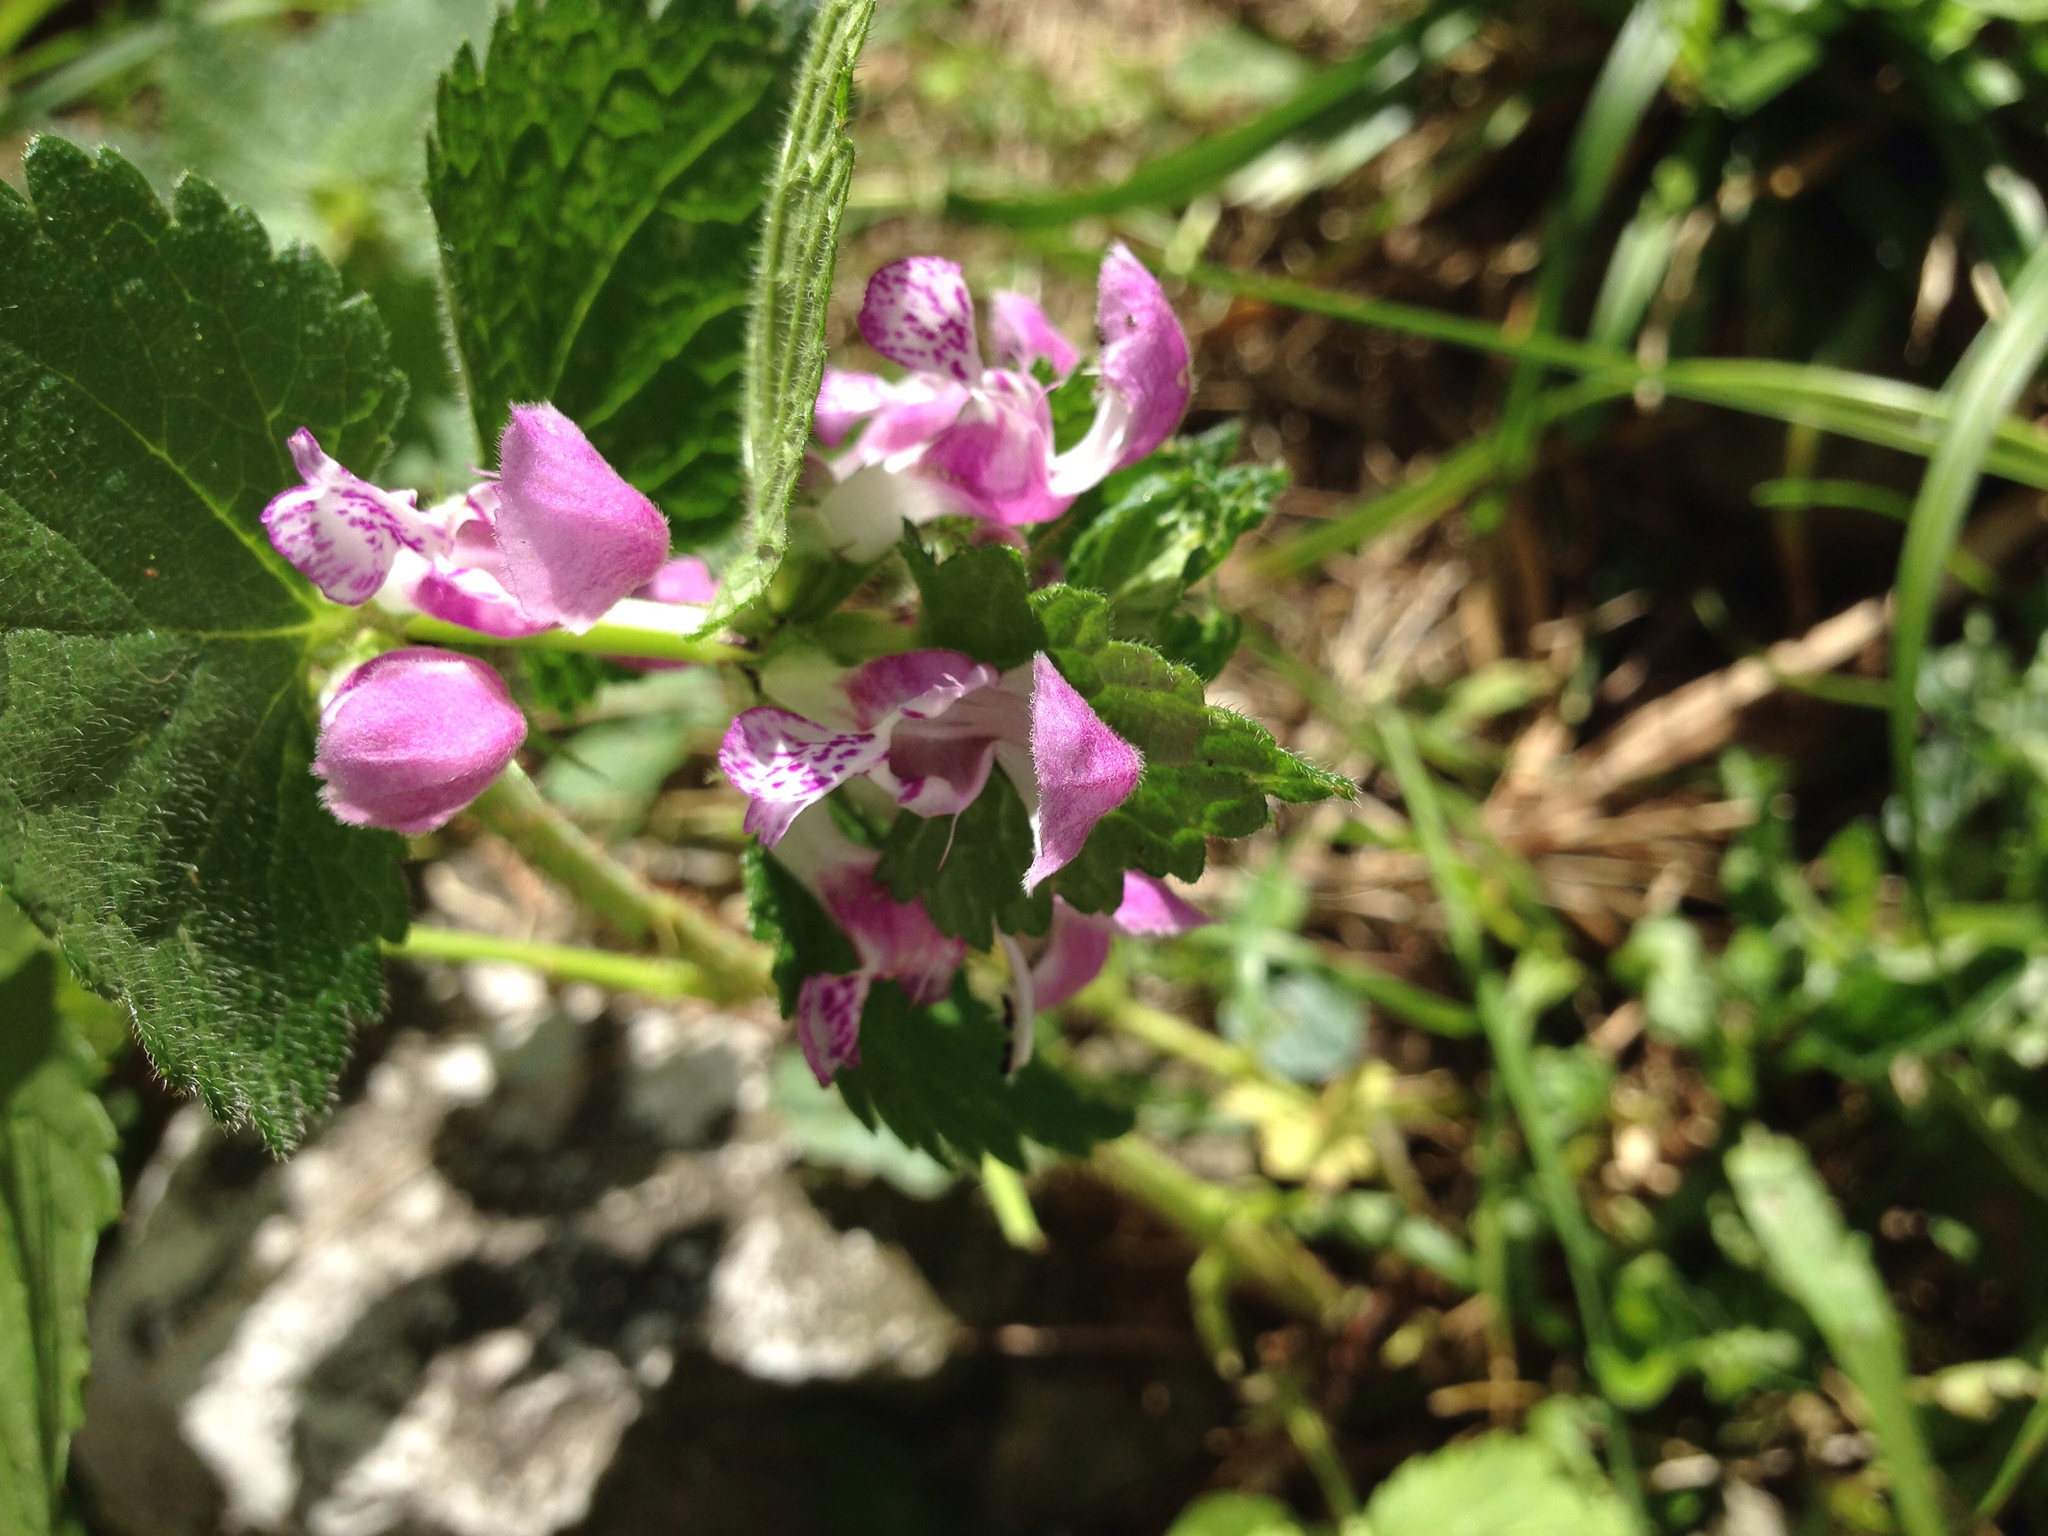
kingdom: Plantae
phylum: Tracheophyta
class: Magnoliopsida
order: Lamiales
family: Lamiaceae
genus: Lamium
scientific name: Lamium maculatum
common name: Spotted dead-nettle
